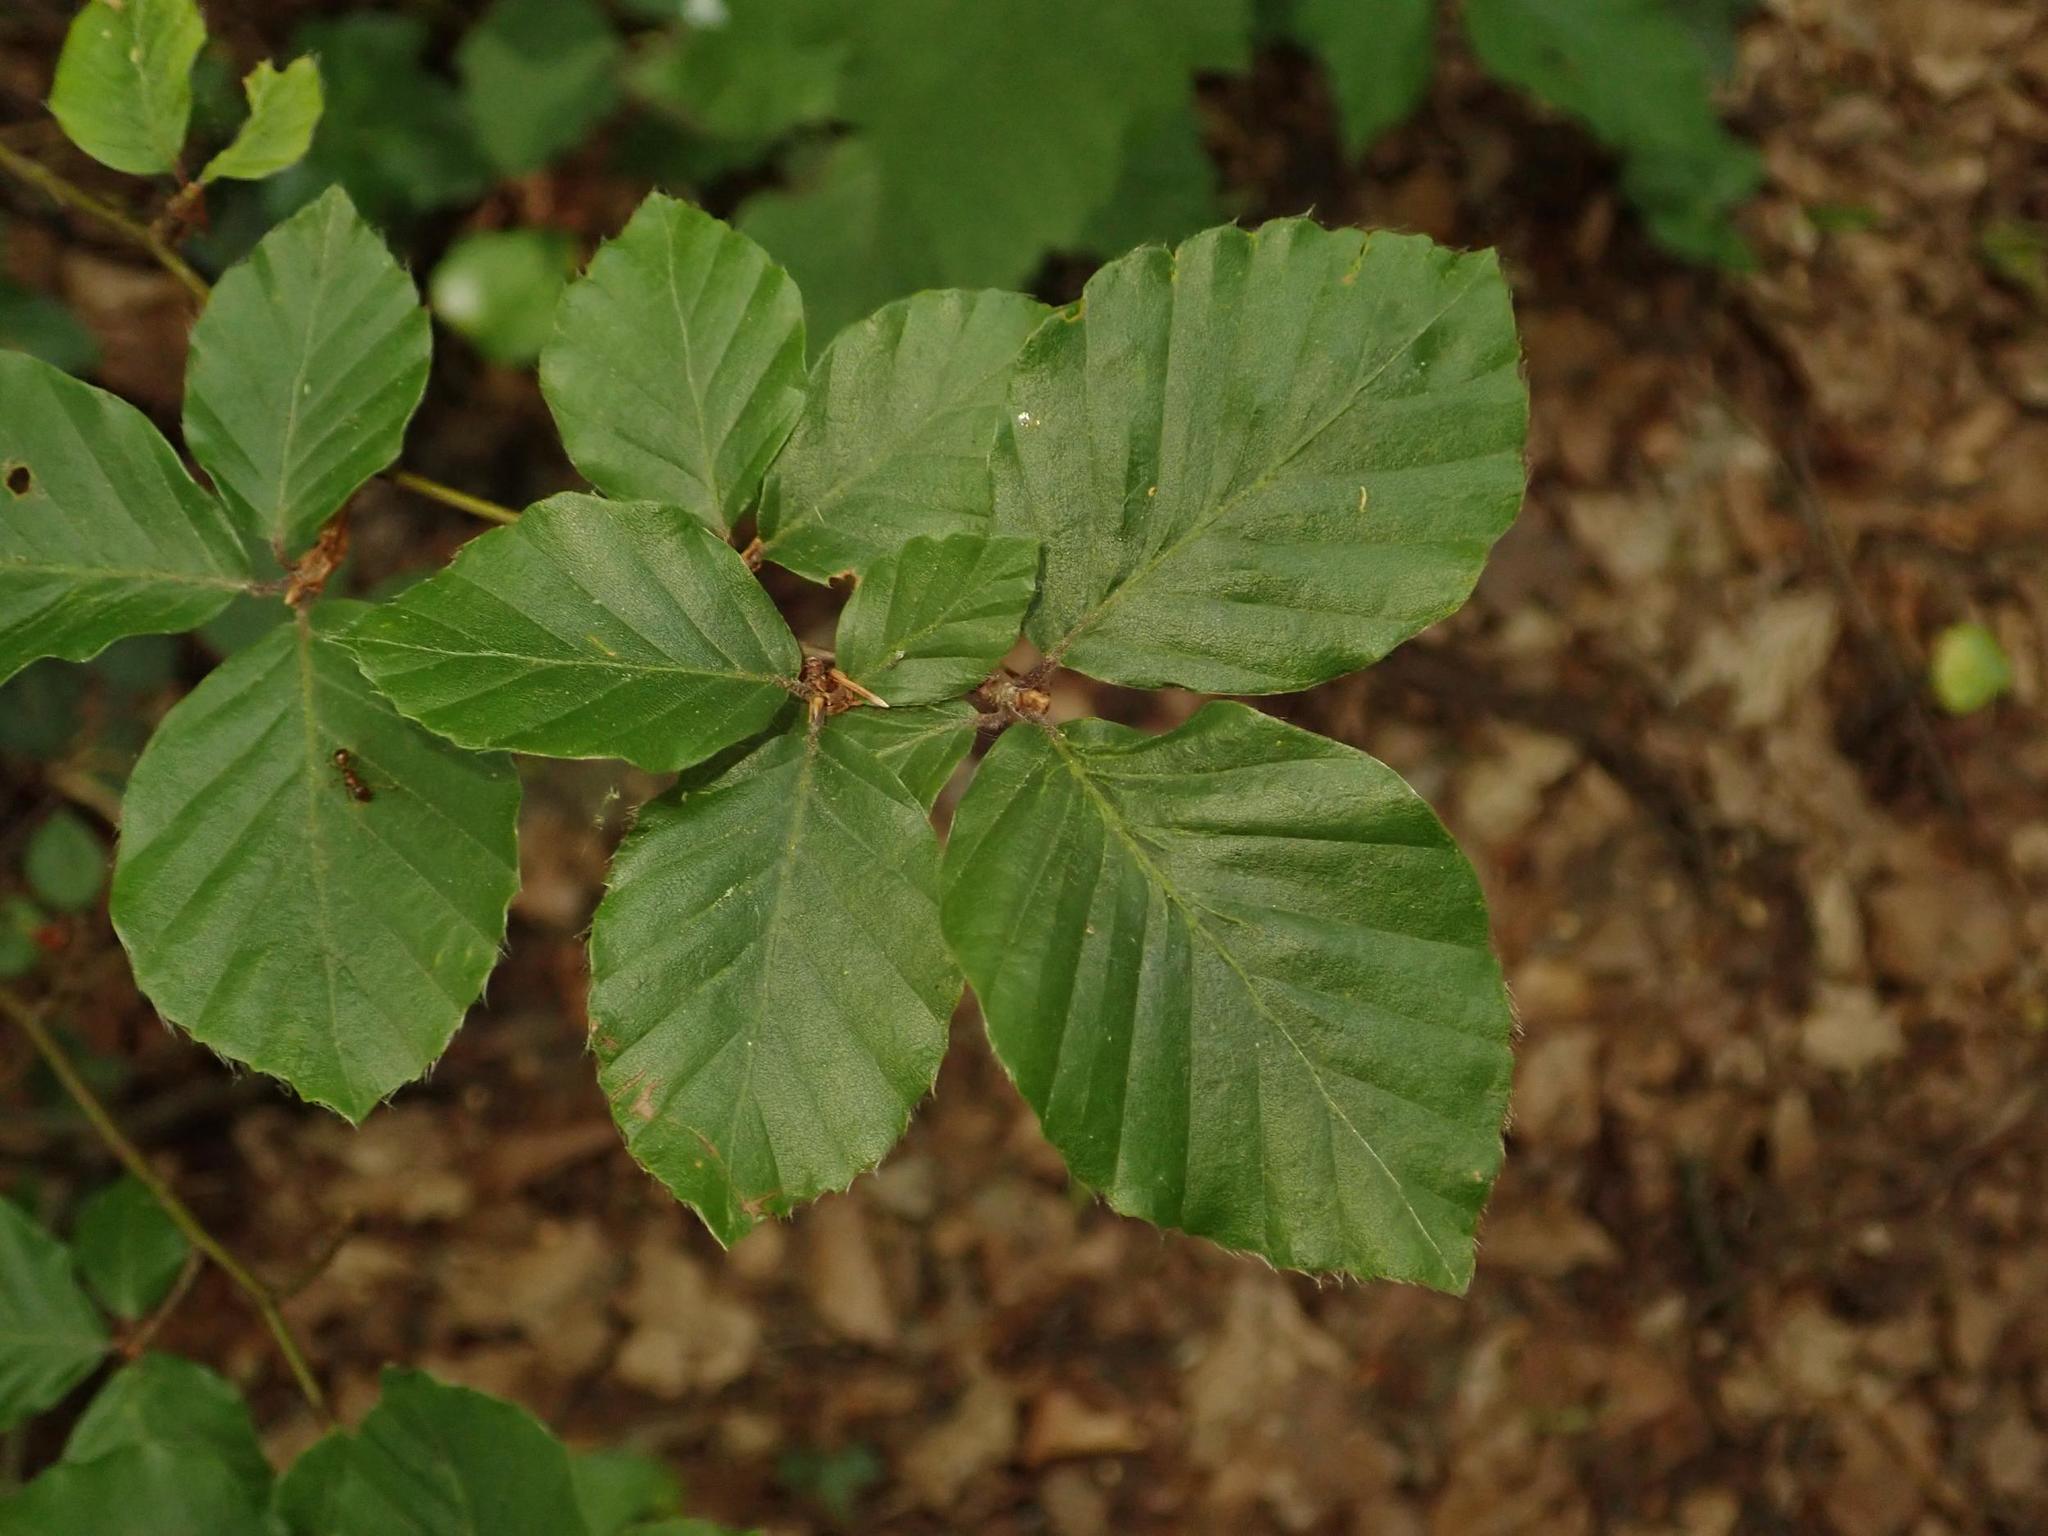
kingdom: Plantae
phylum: Tracheophyta
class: Magnoliopsida
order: Fagales
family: Fagaceae
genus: Fagus
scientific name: Fagus sylvatica
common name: Beech
